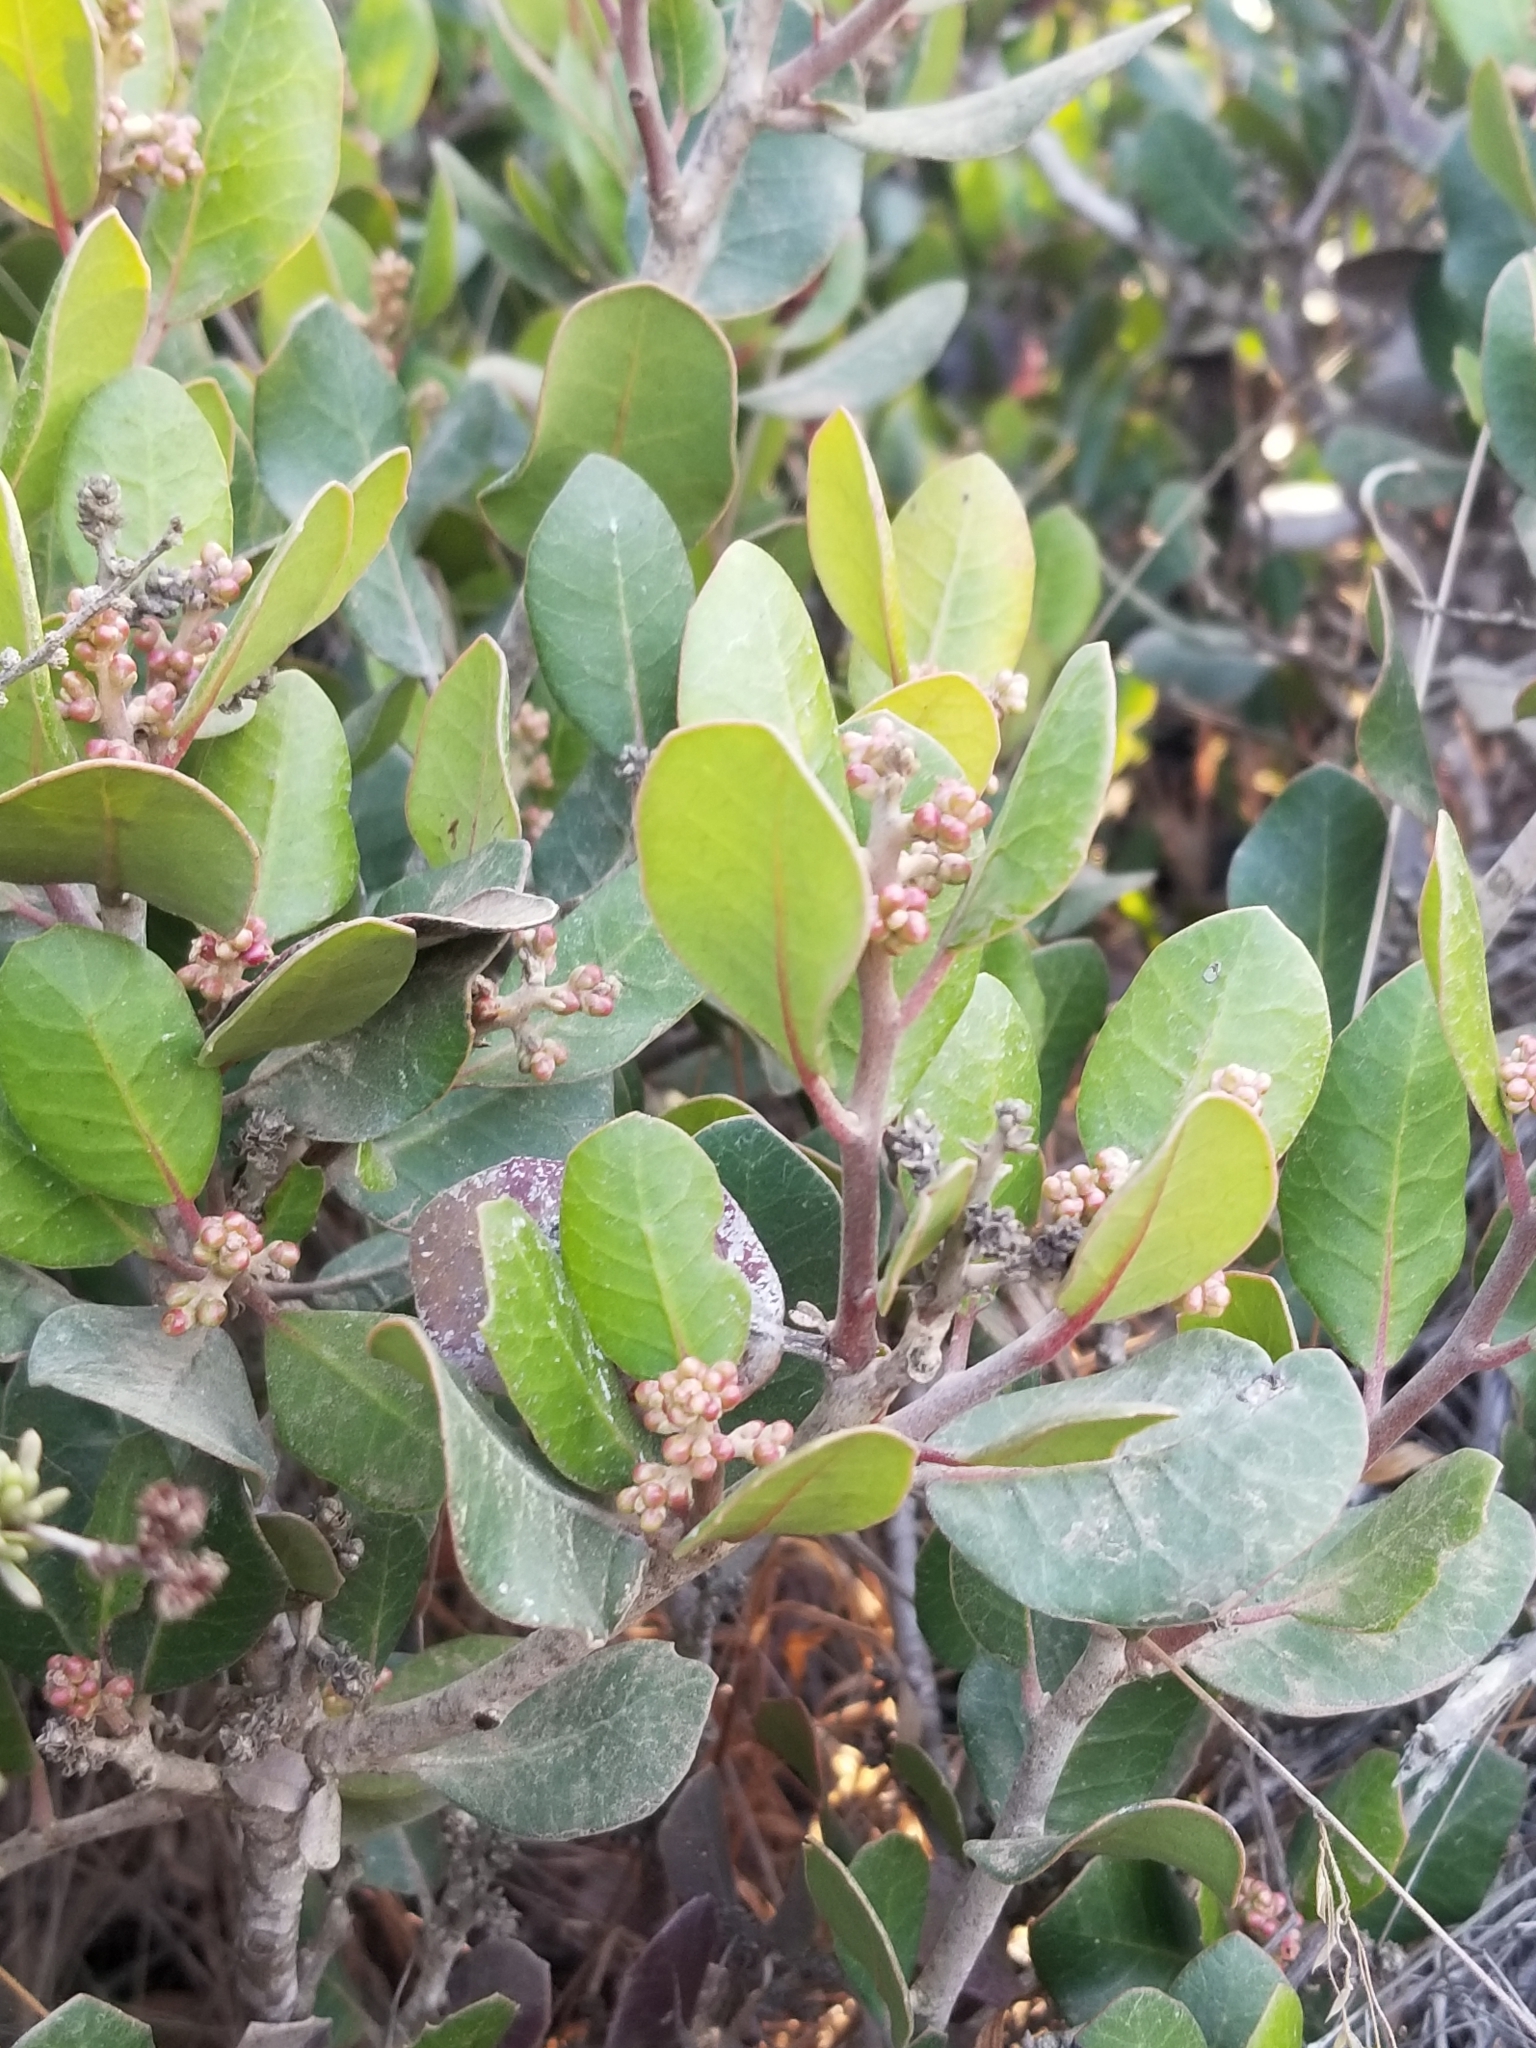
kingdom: Plantae
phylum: Tracheophyta
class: Magnoliopsida
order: Sapindales
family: Anacardiaceae
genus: Rhus
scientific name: Rhus integrifolia
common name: Lemonade sumac
